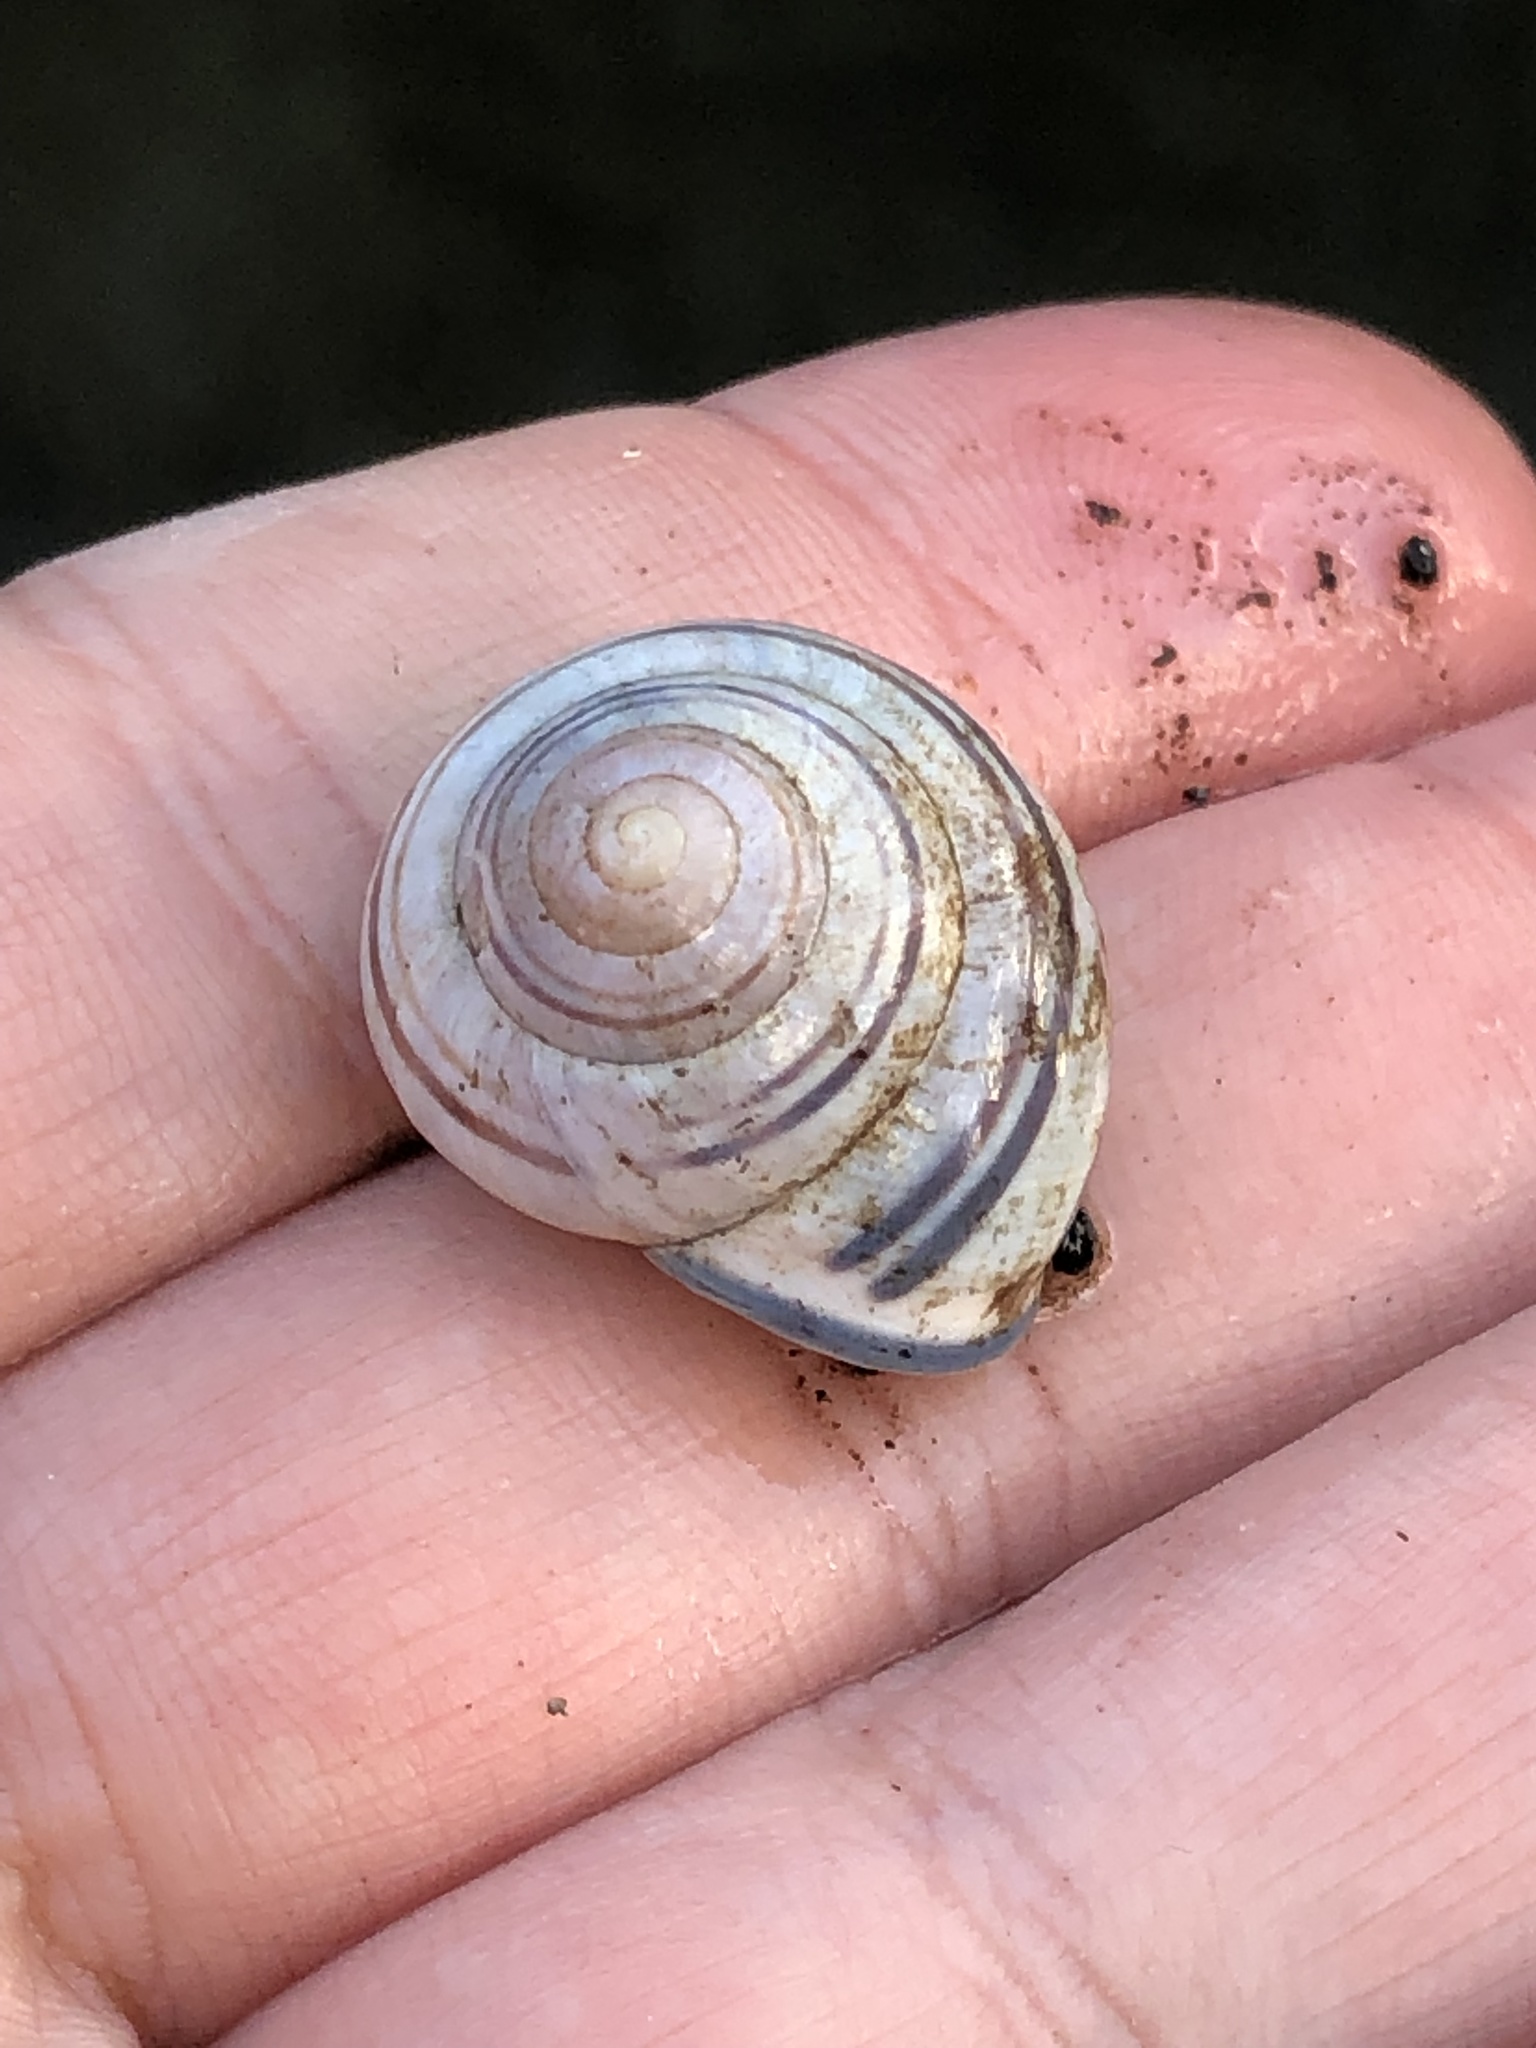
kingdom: Animalia
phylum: Mollusca
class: Gastropoda
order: Stylommatophora
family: Helicidae
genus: Cepaea
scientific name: Cepaea nemoralis
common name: Grovesnail
